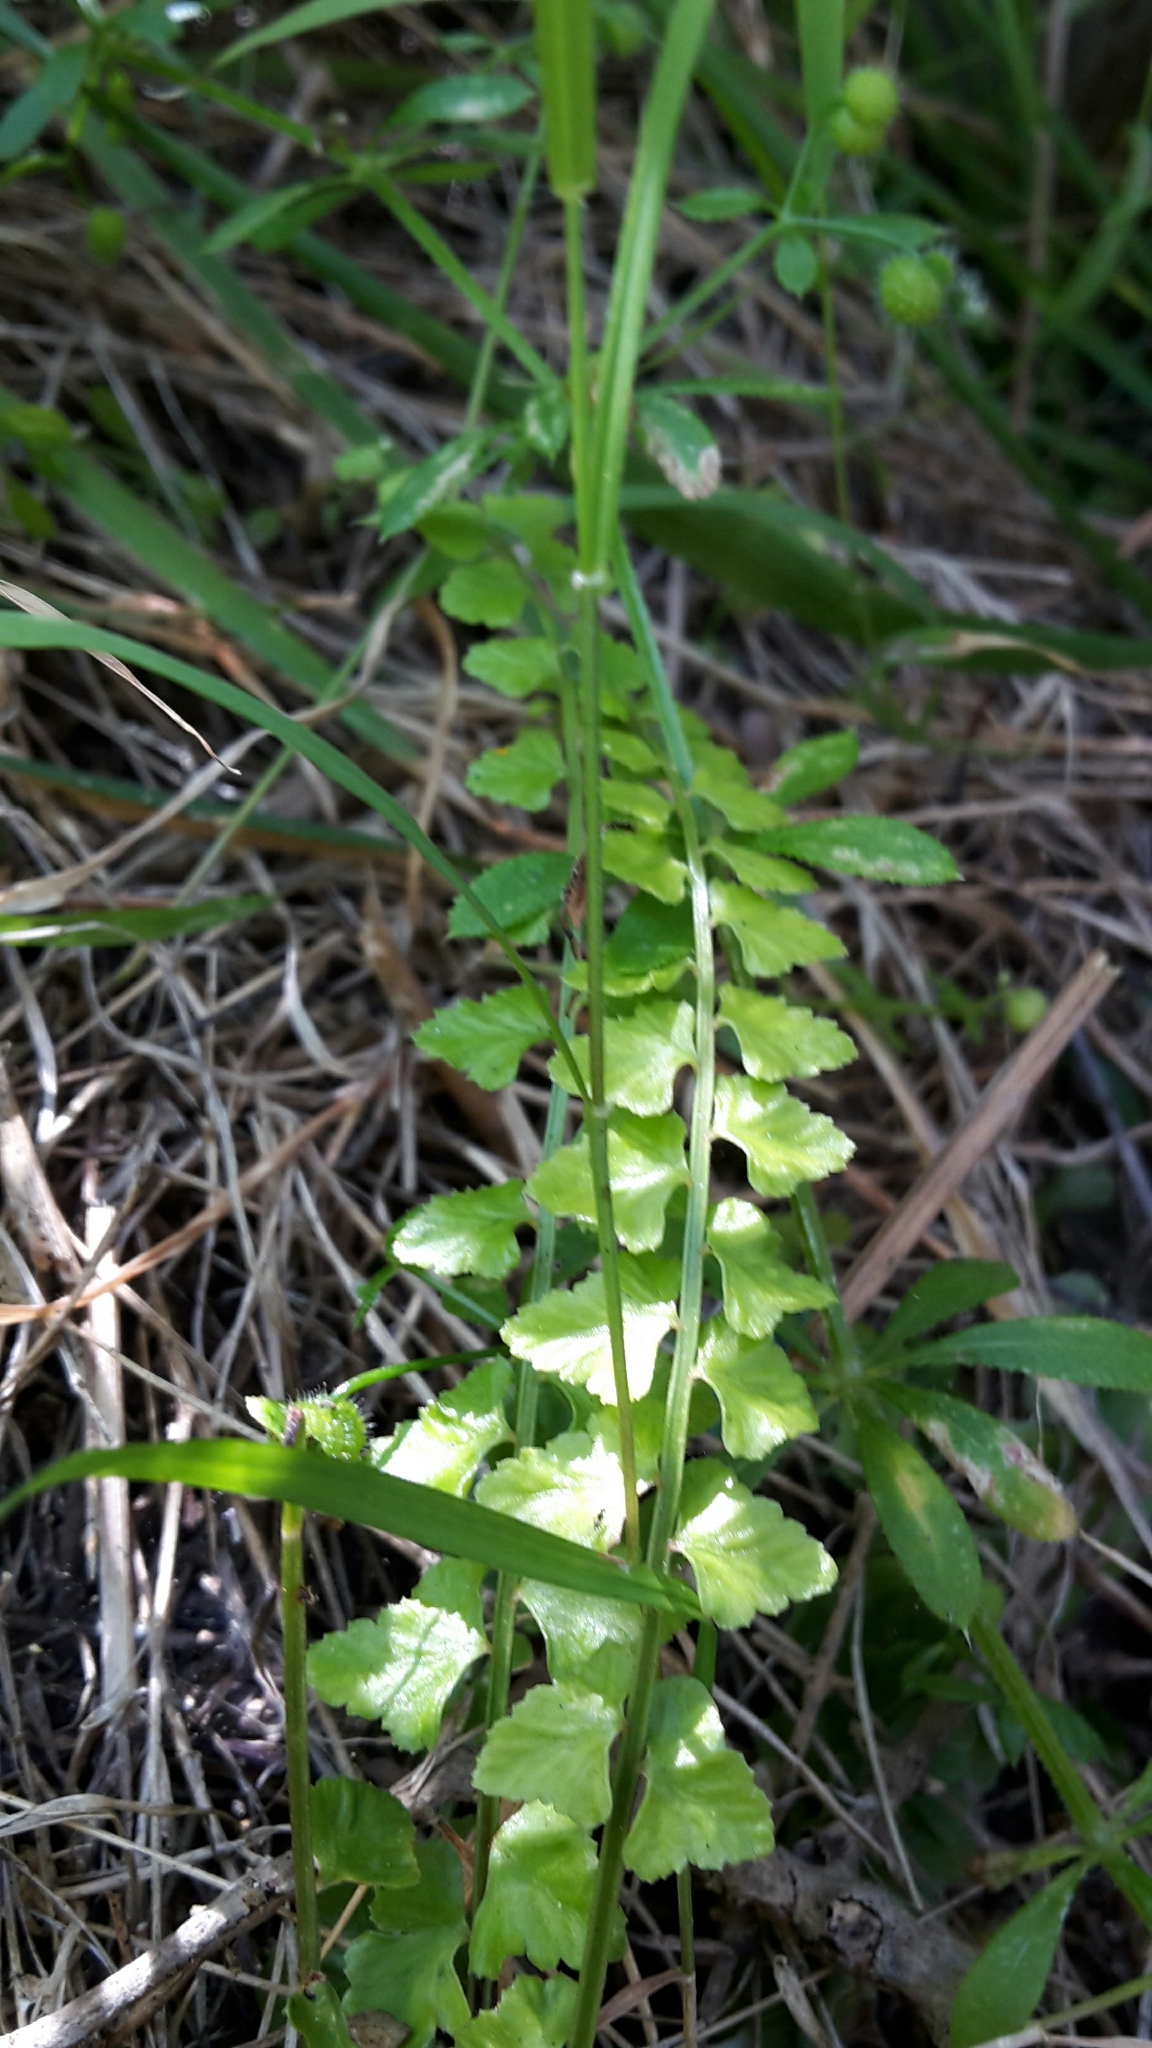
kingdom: Plantae
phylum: Tracheophyta
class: Polypodiopsida
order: Polypodiales
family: Aspleniaceae
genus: Asplenium
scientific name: Asplenium flabellifolium
